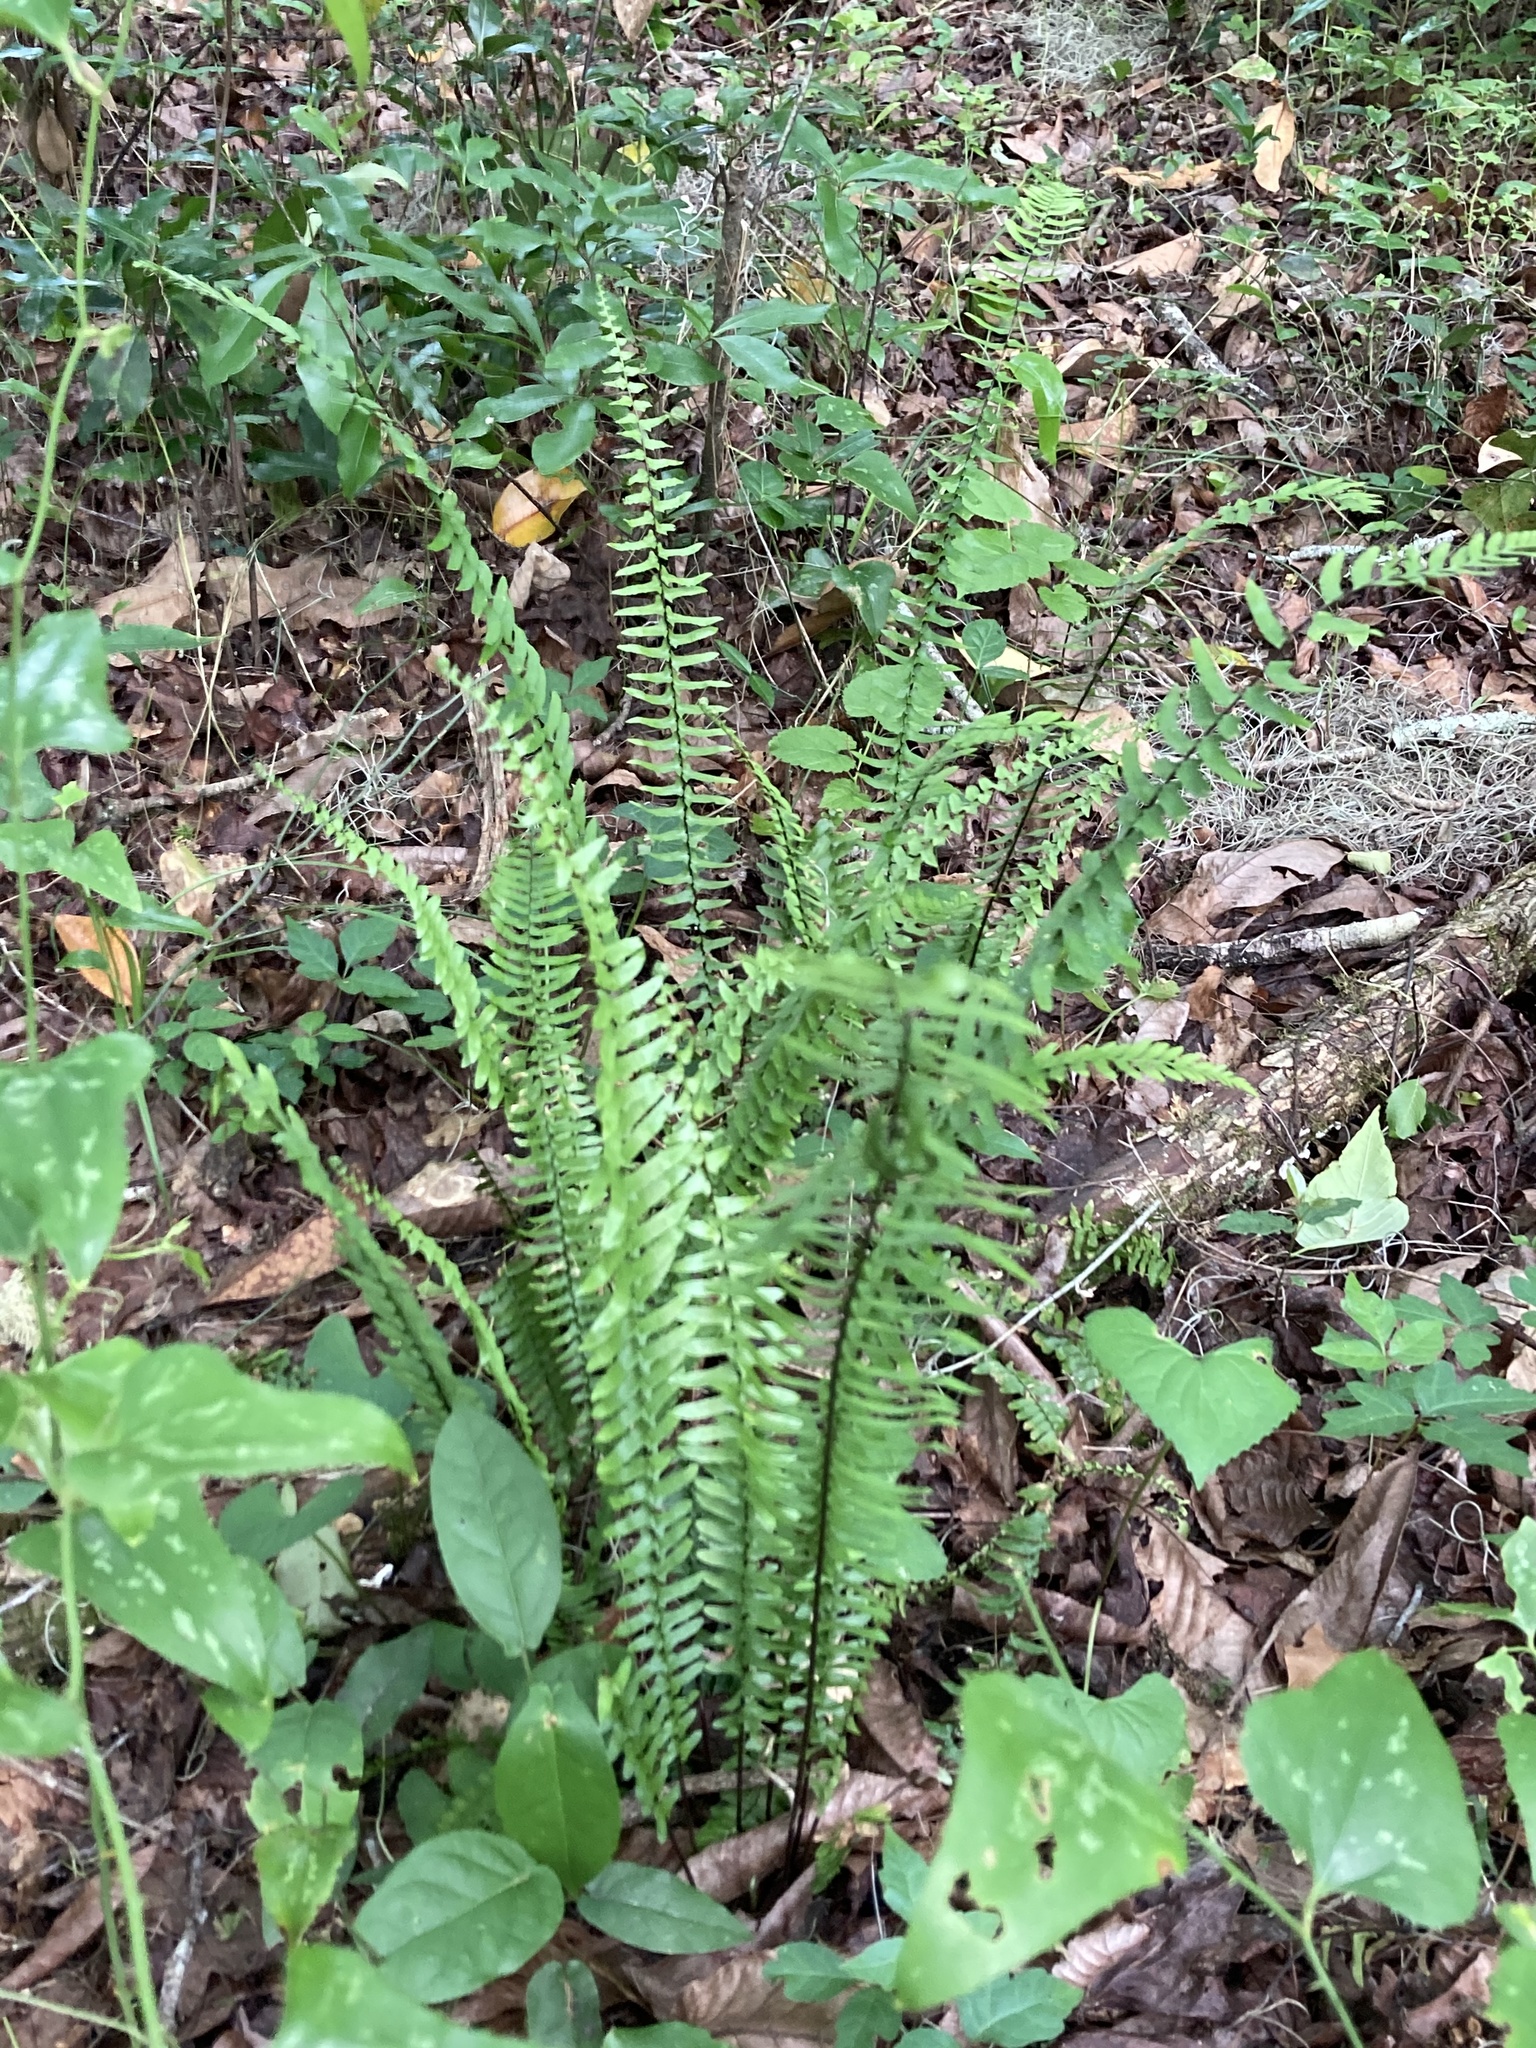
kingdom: Plantae
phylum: Tracheophyta
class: Polypodiopsida
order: Polypodiales
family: Aspleniaceae
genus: Asplenium
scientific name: Asplenium platyneuron
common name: Ebony spleenwort
